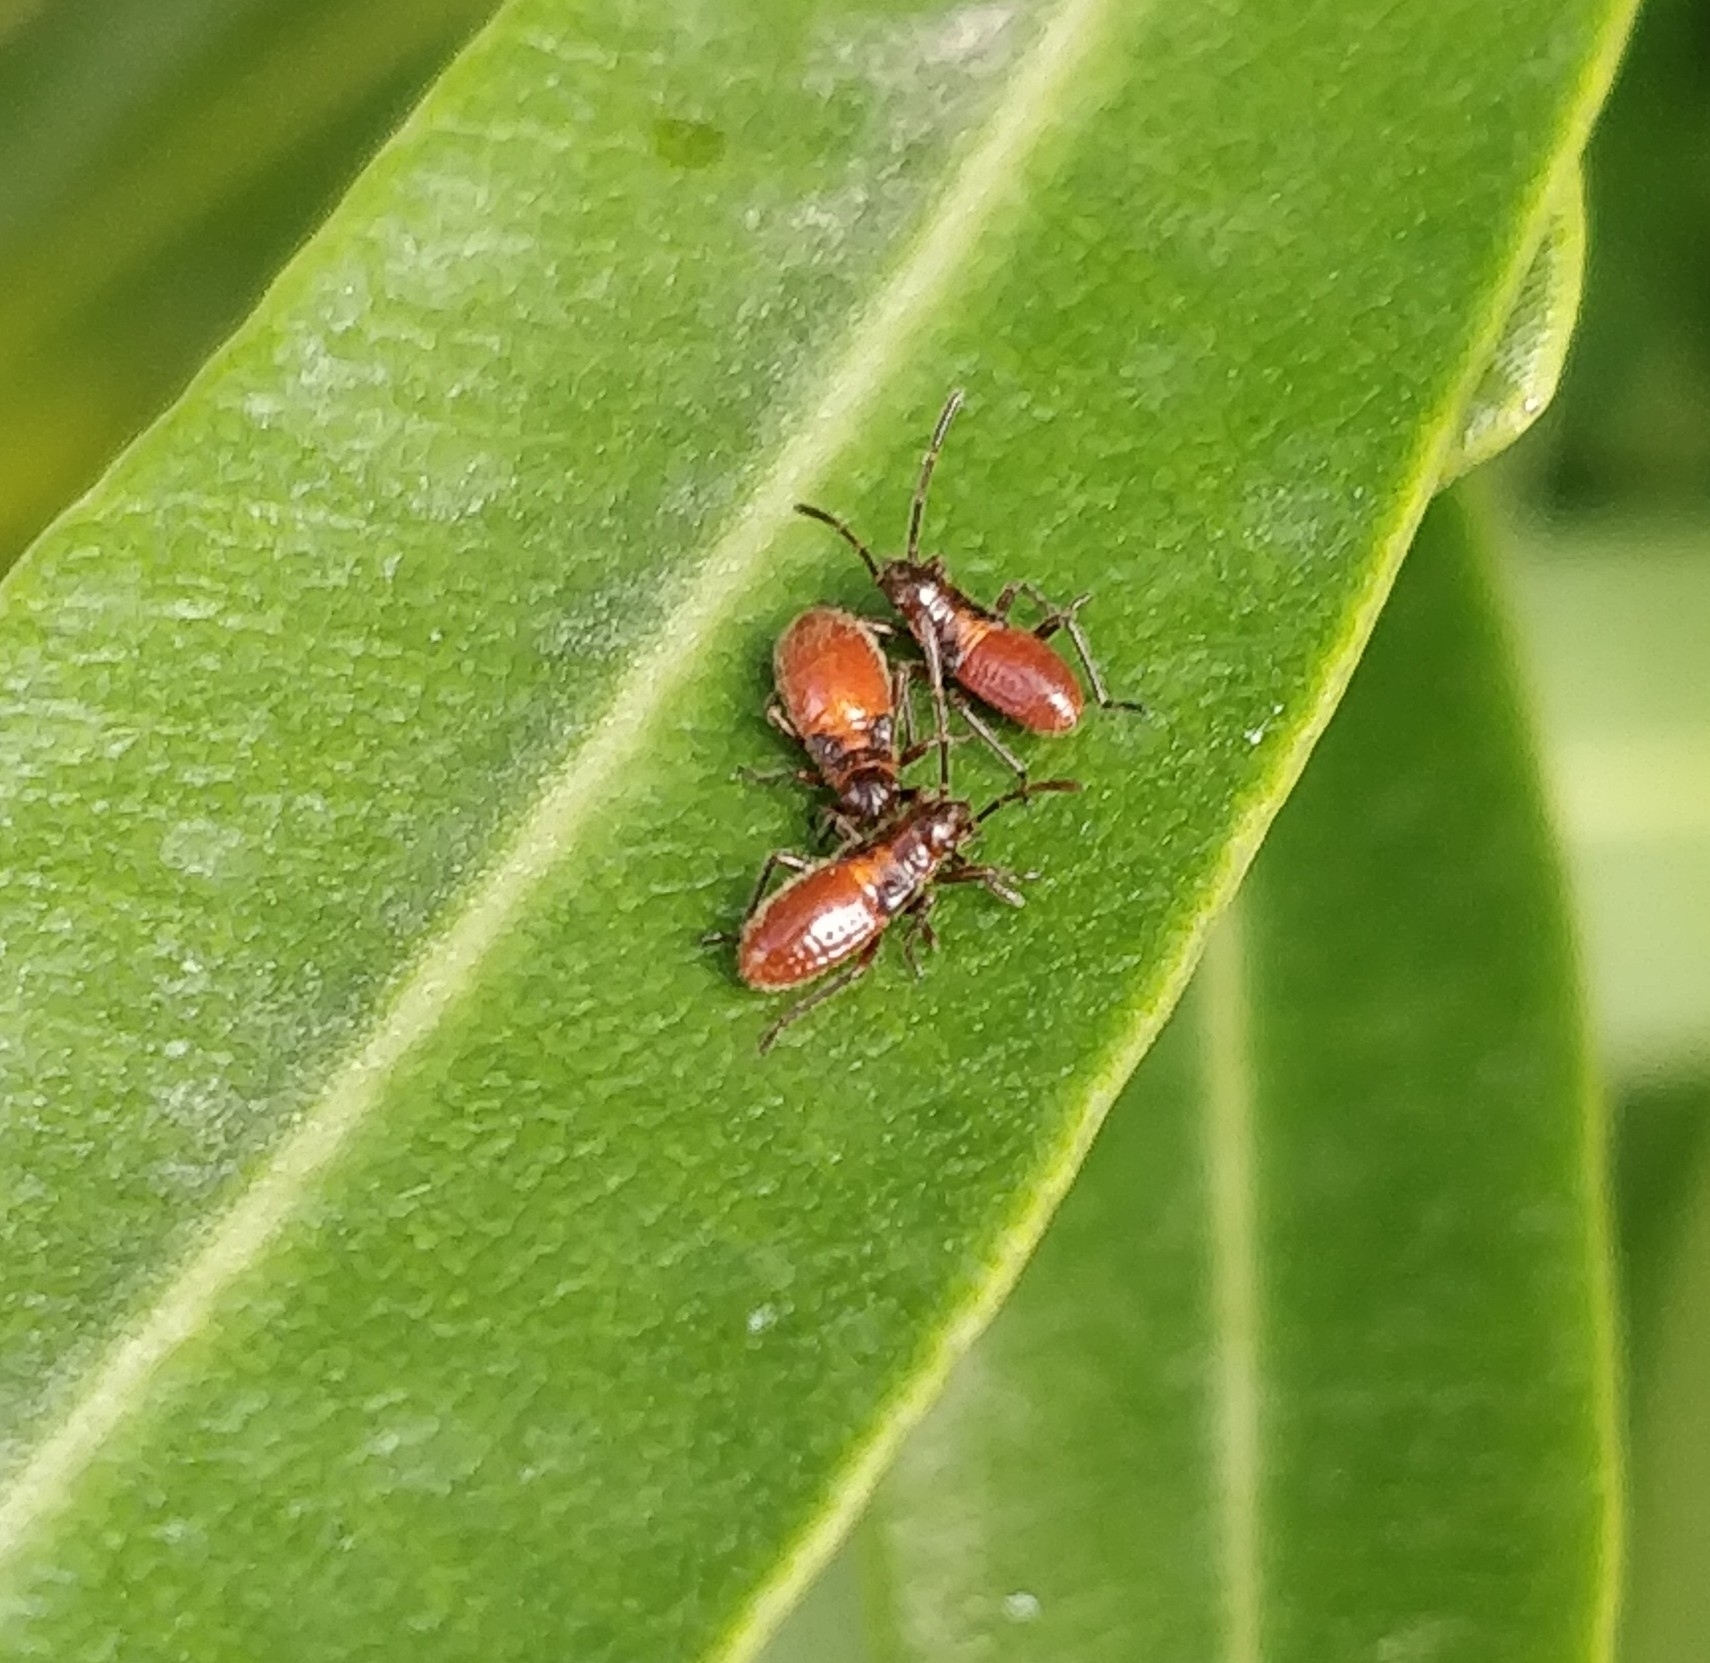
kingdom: Animalia
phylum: Arthropoda
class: Insecta
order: Hemiptera
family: Lygaeidae
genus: Caenocoris
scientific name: Caenocoris nerii
